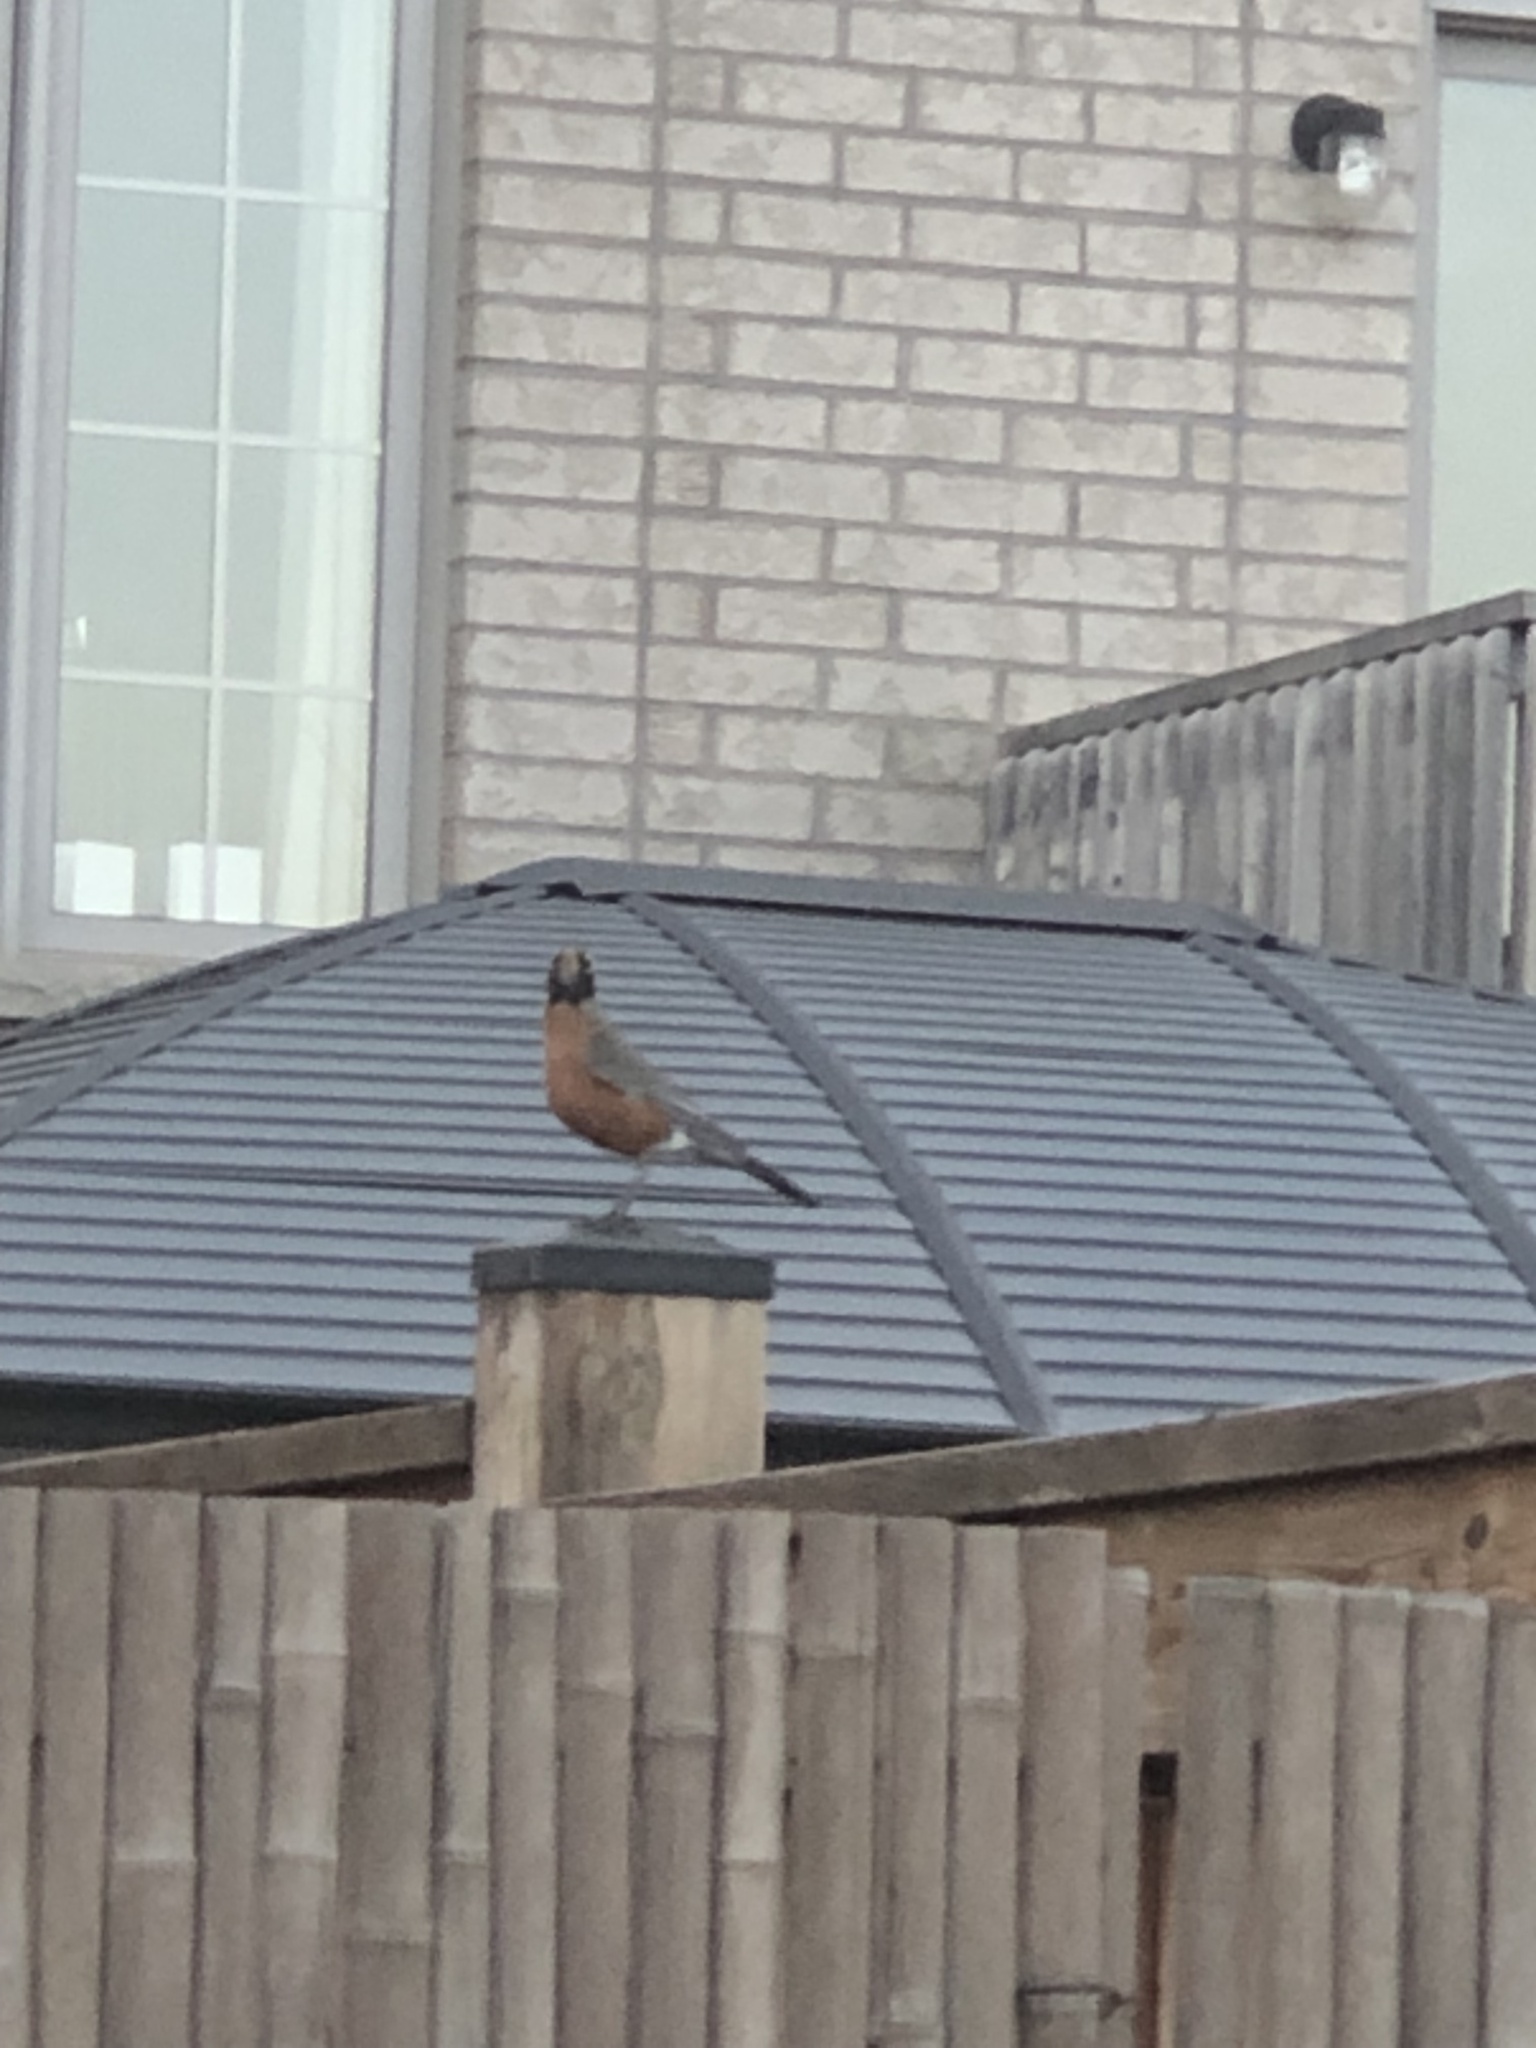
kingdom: Animalia
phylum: Chordata
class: Aves
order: Passeriformes
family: Turdidae
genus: Turdus
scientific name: Turdus migratorius
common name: American robin
